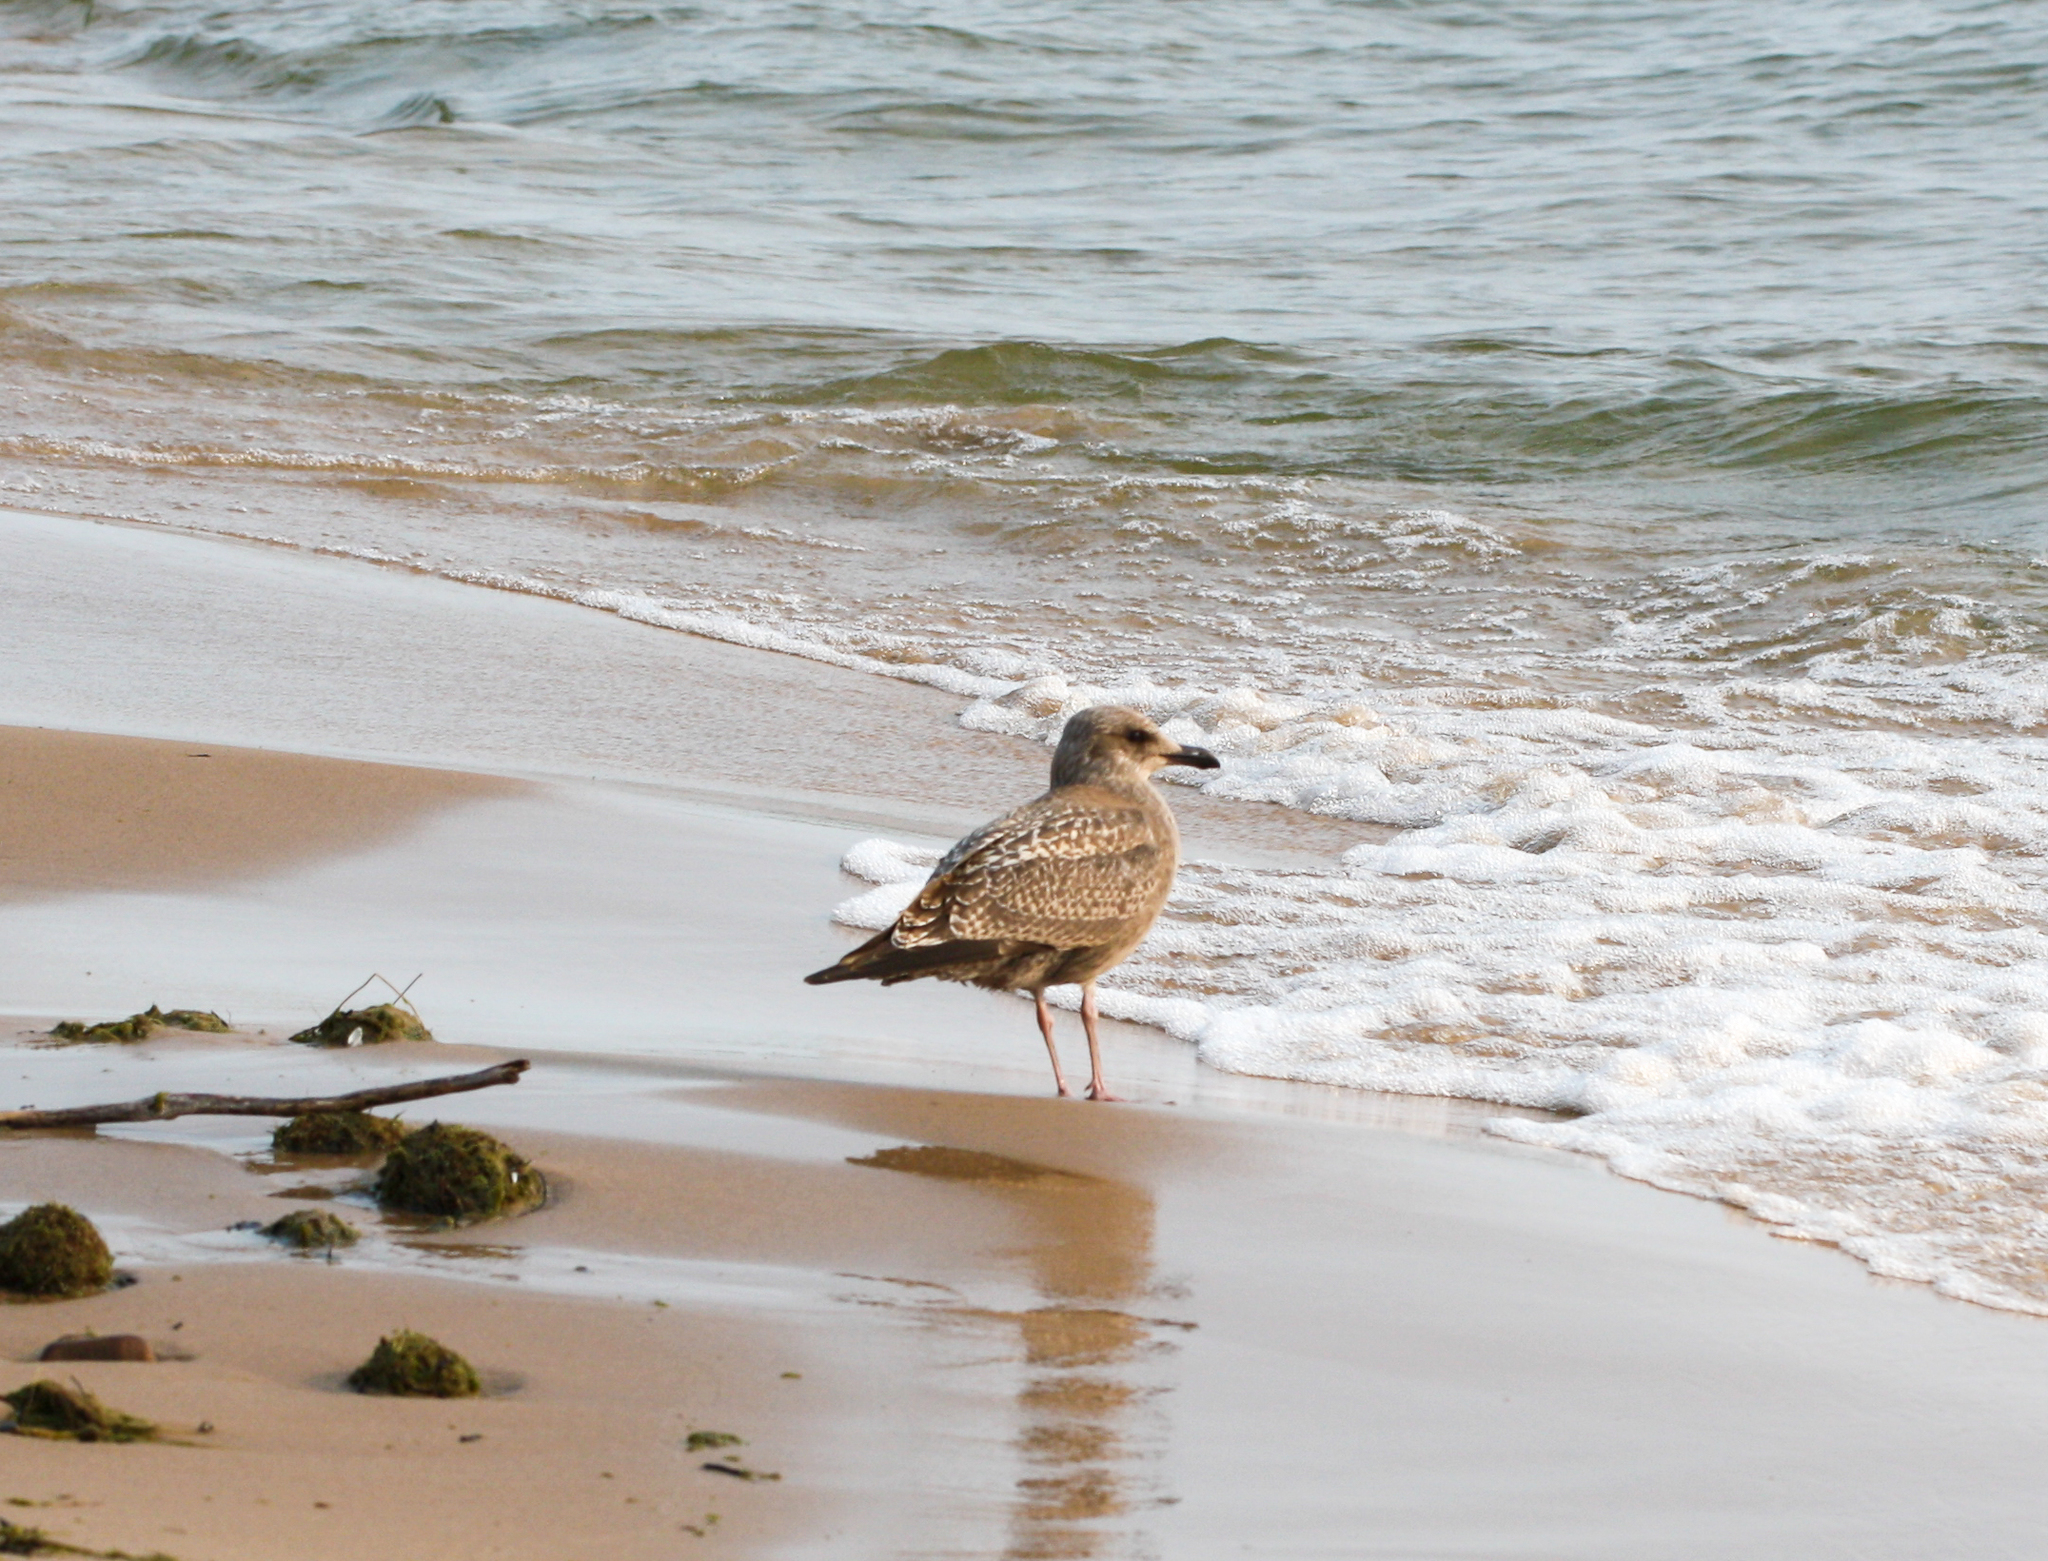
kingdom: Animalia
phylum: Chordata
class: Aves
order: Charadriiformes
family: Laridae
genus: Larus
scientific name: Larus argentatus
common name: Herring gull
